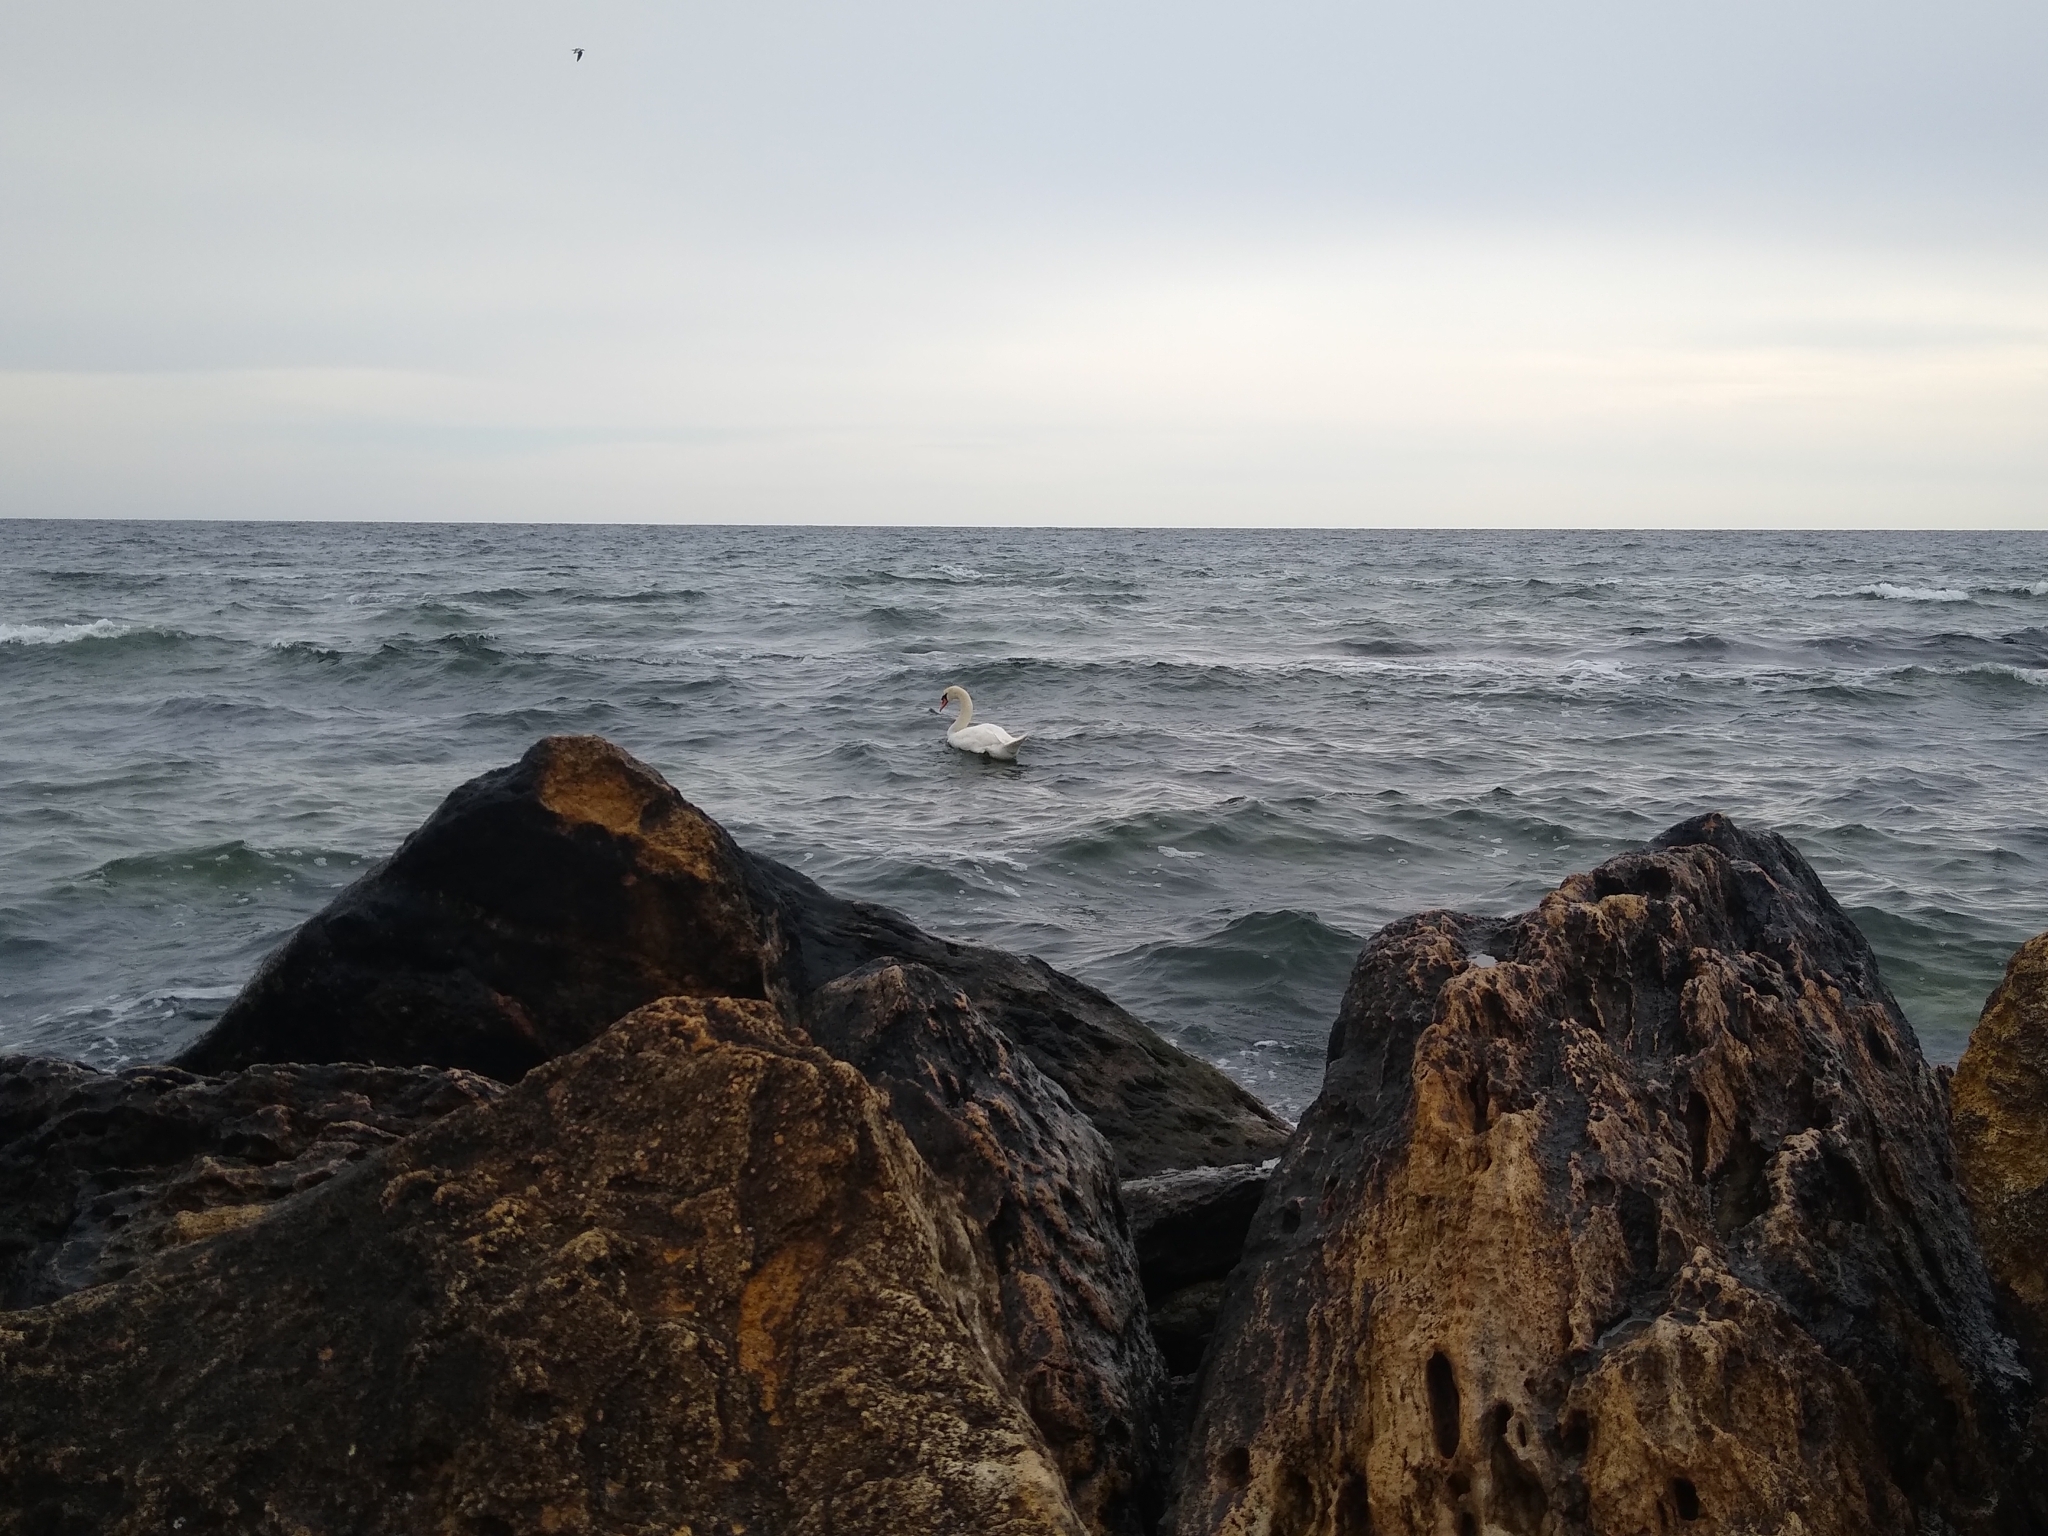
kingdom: Animalia
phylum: Chordata
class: Aves
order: Anseriformes
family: Anatidae
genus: Cygnus
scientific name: Cygnus olor
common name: Mute swan
